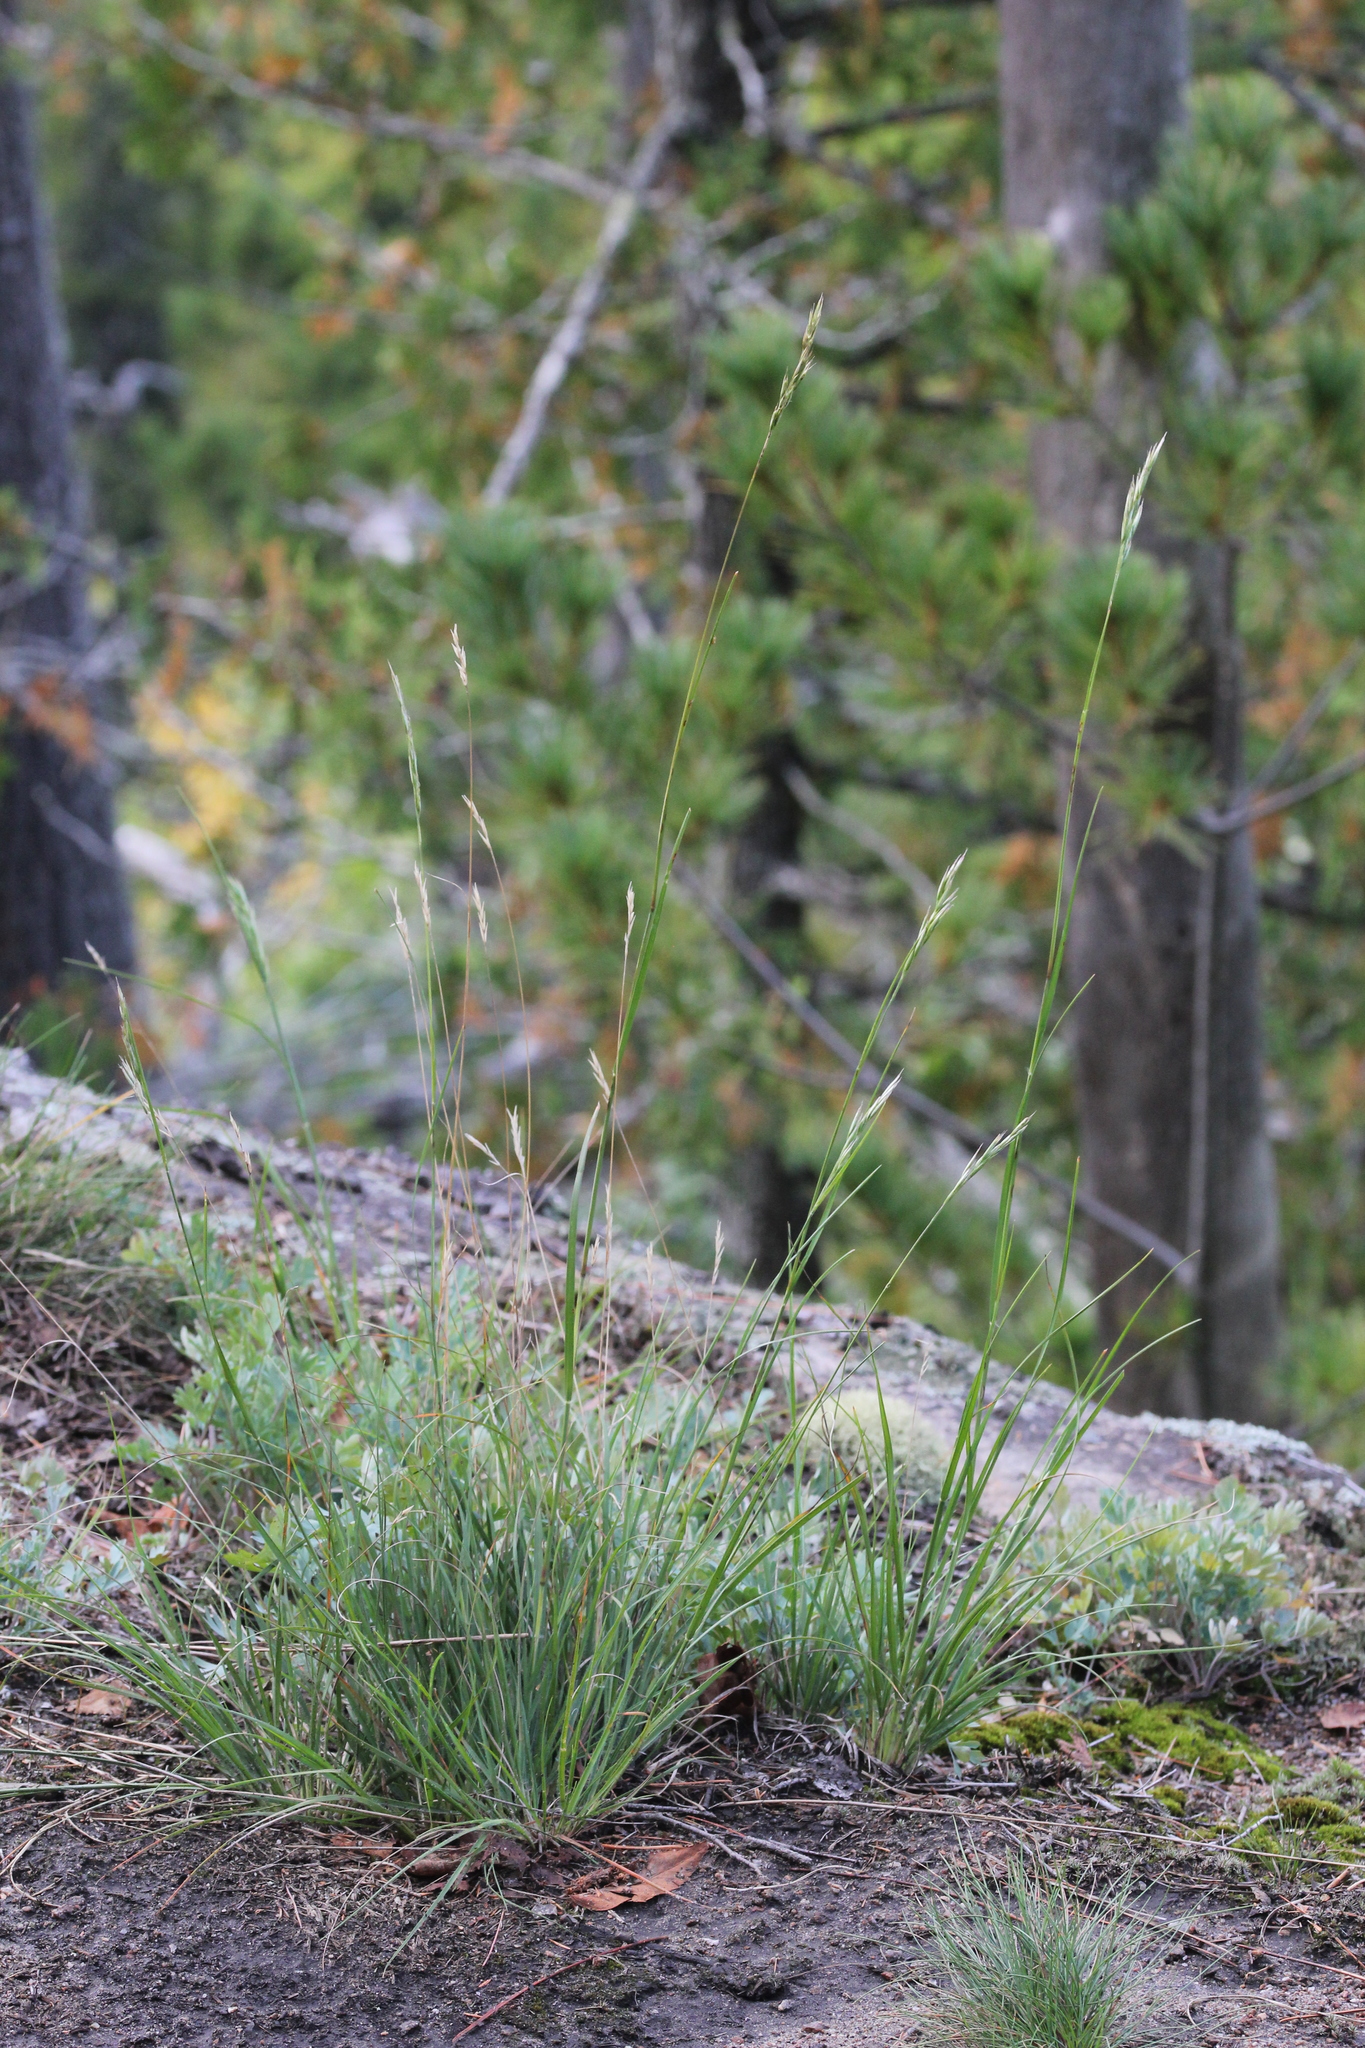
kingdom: Plantae
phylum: Tracheophyta
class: Liliopsida
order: Poales
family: Poaceae
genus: Danthonia
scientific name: Danthonia spicata
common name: Common wild oatgrass
